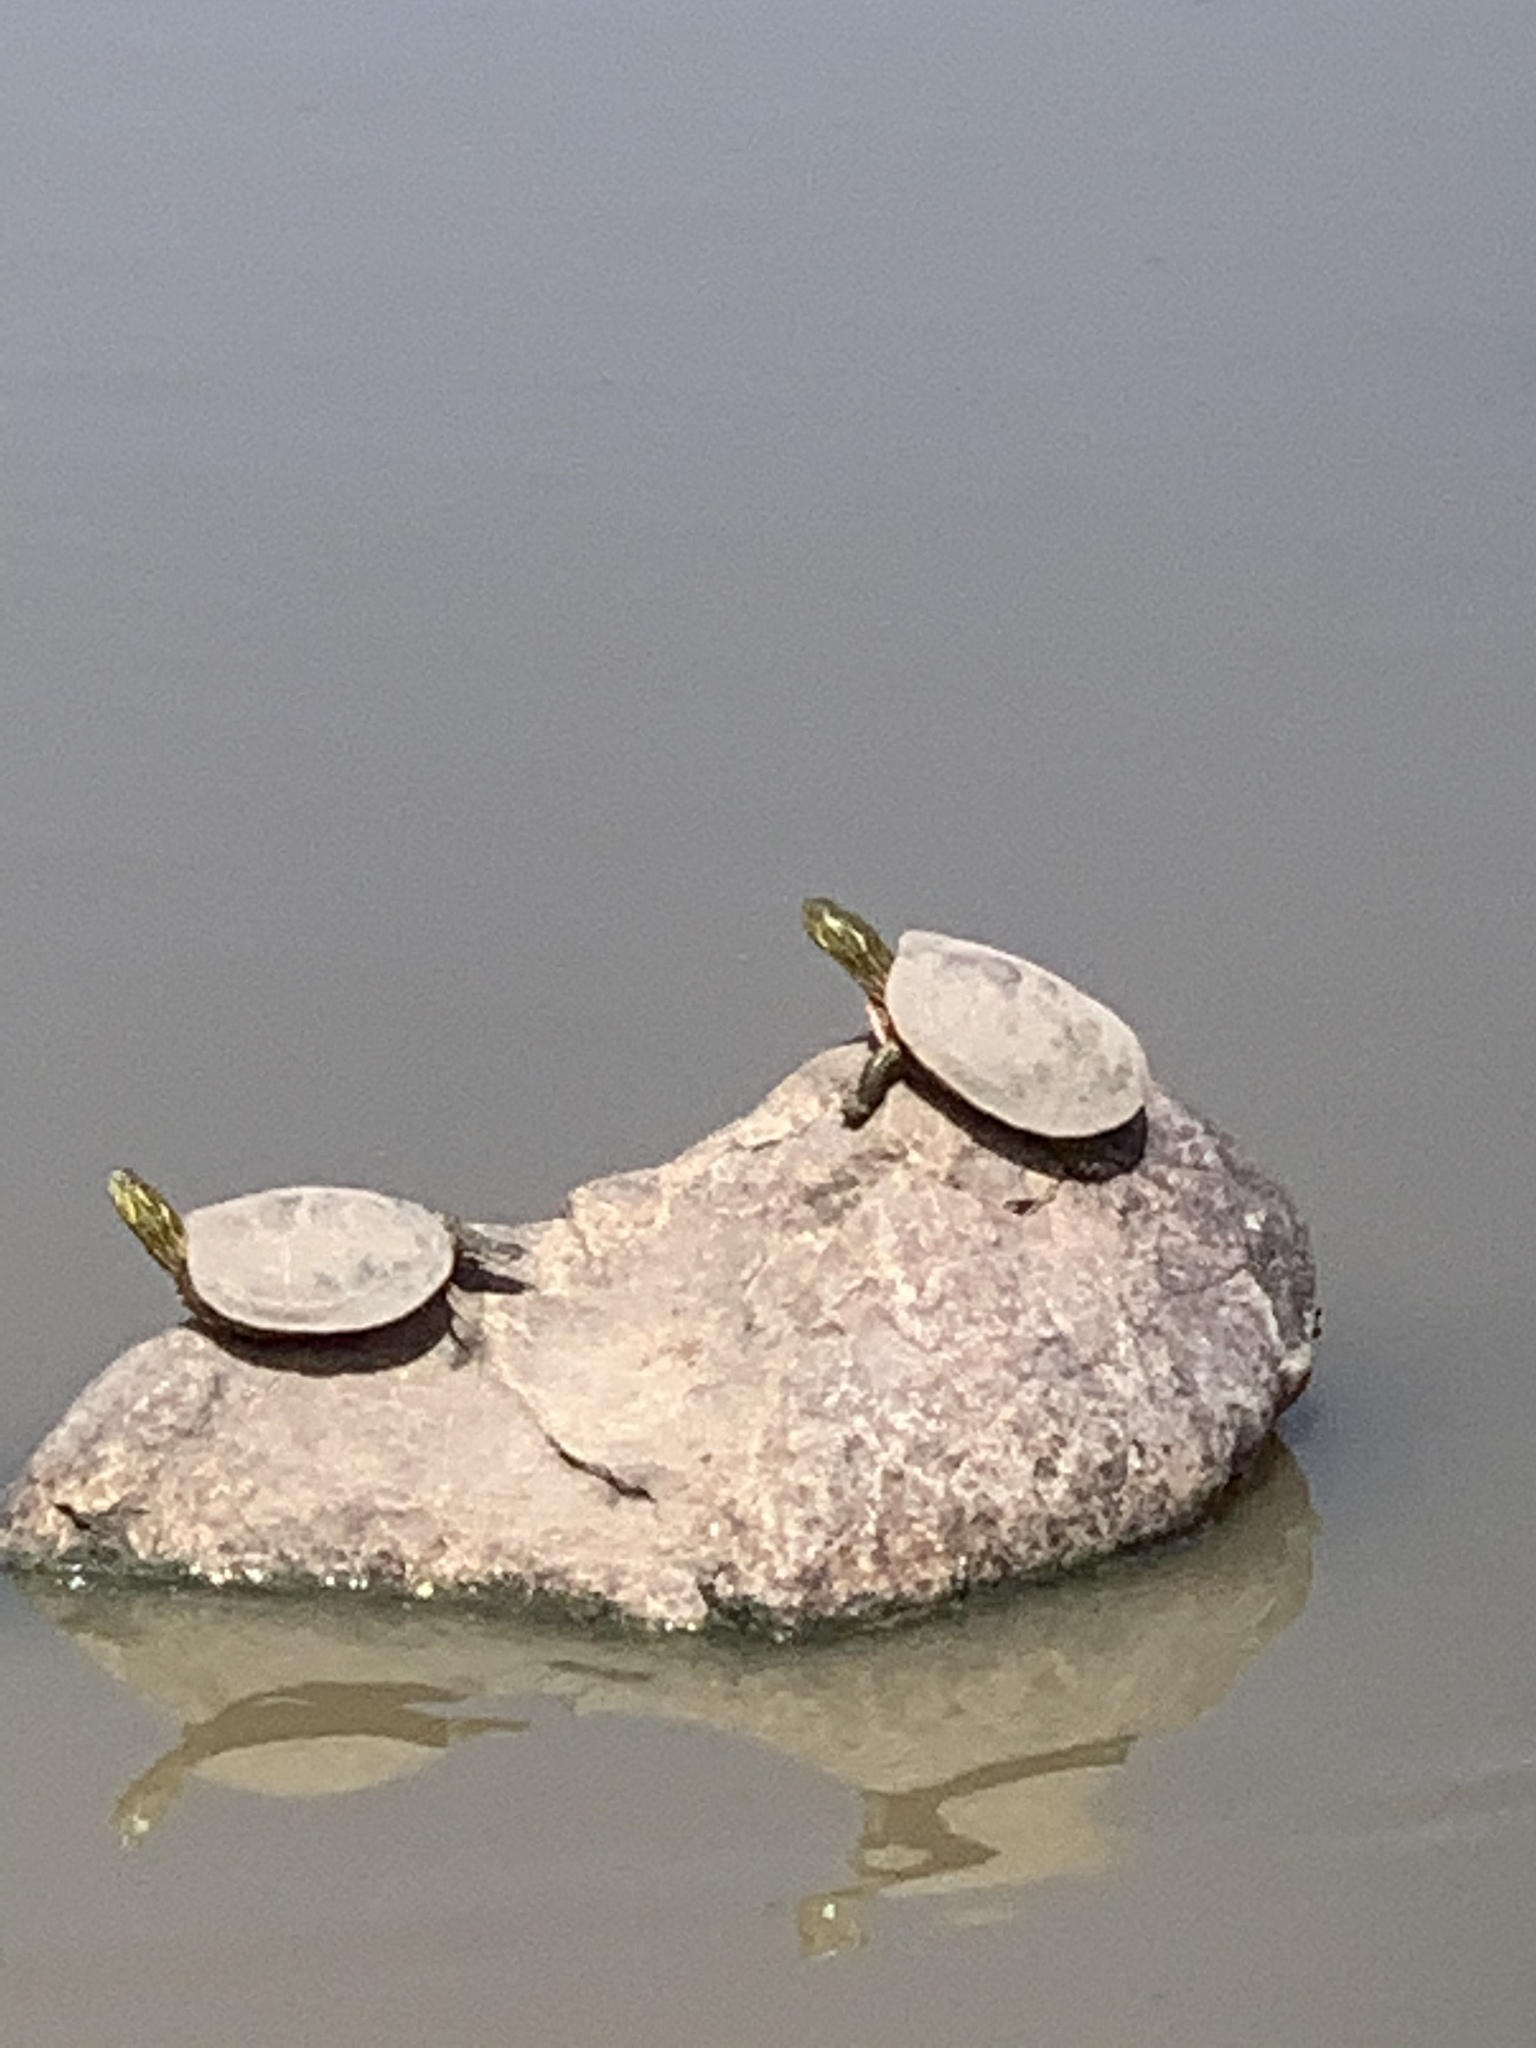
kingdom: Animalia
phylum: Chordata
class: Testudines
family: Emydidae
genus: Chrysemys
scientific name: Chrysemys picta
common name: Painted turtle
